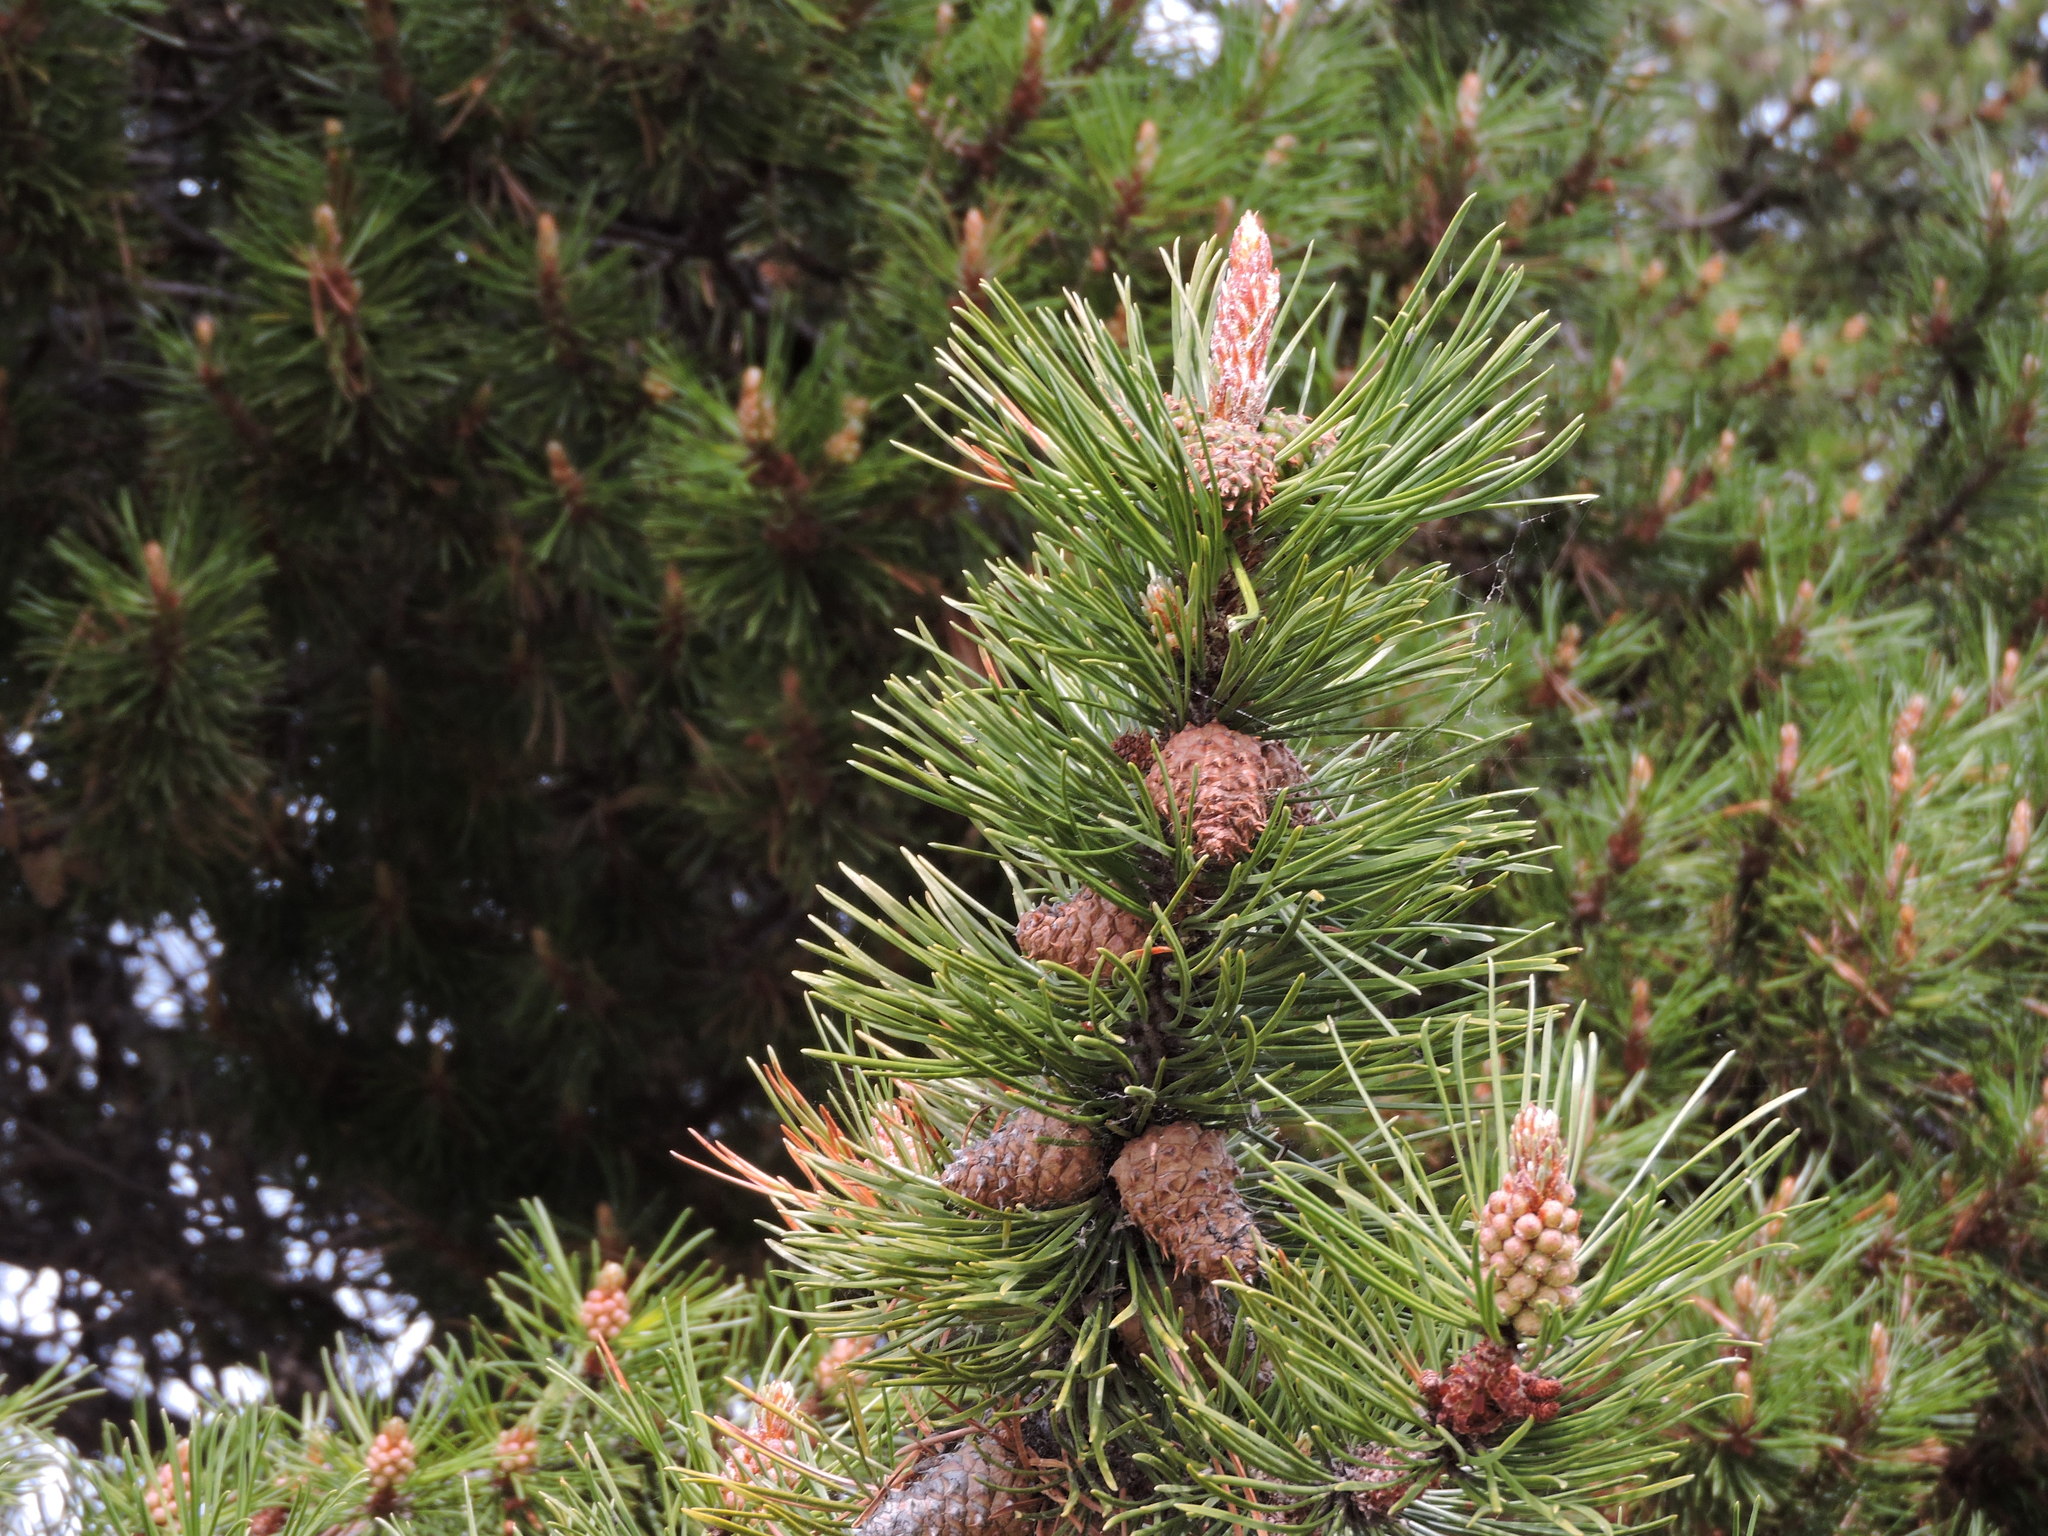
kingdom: Plantae
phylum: Tracheophyta
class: Pinopsida
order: Pinales
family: Pinaceae
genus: Pinus
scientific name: Pinus contorta
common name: Lodgepole pine
